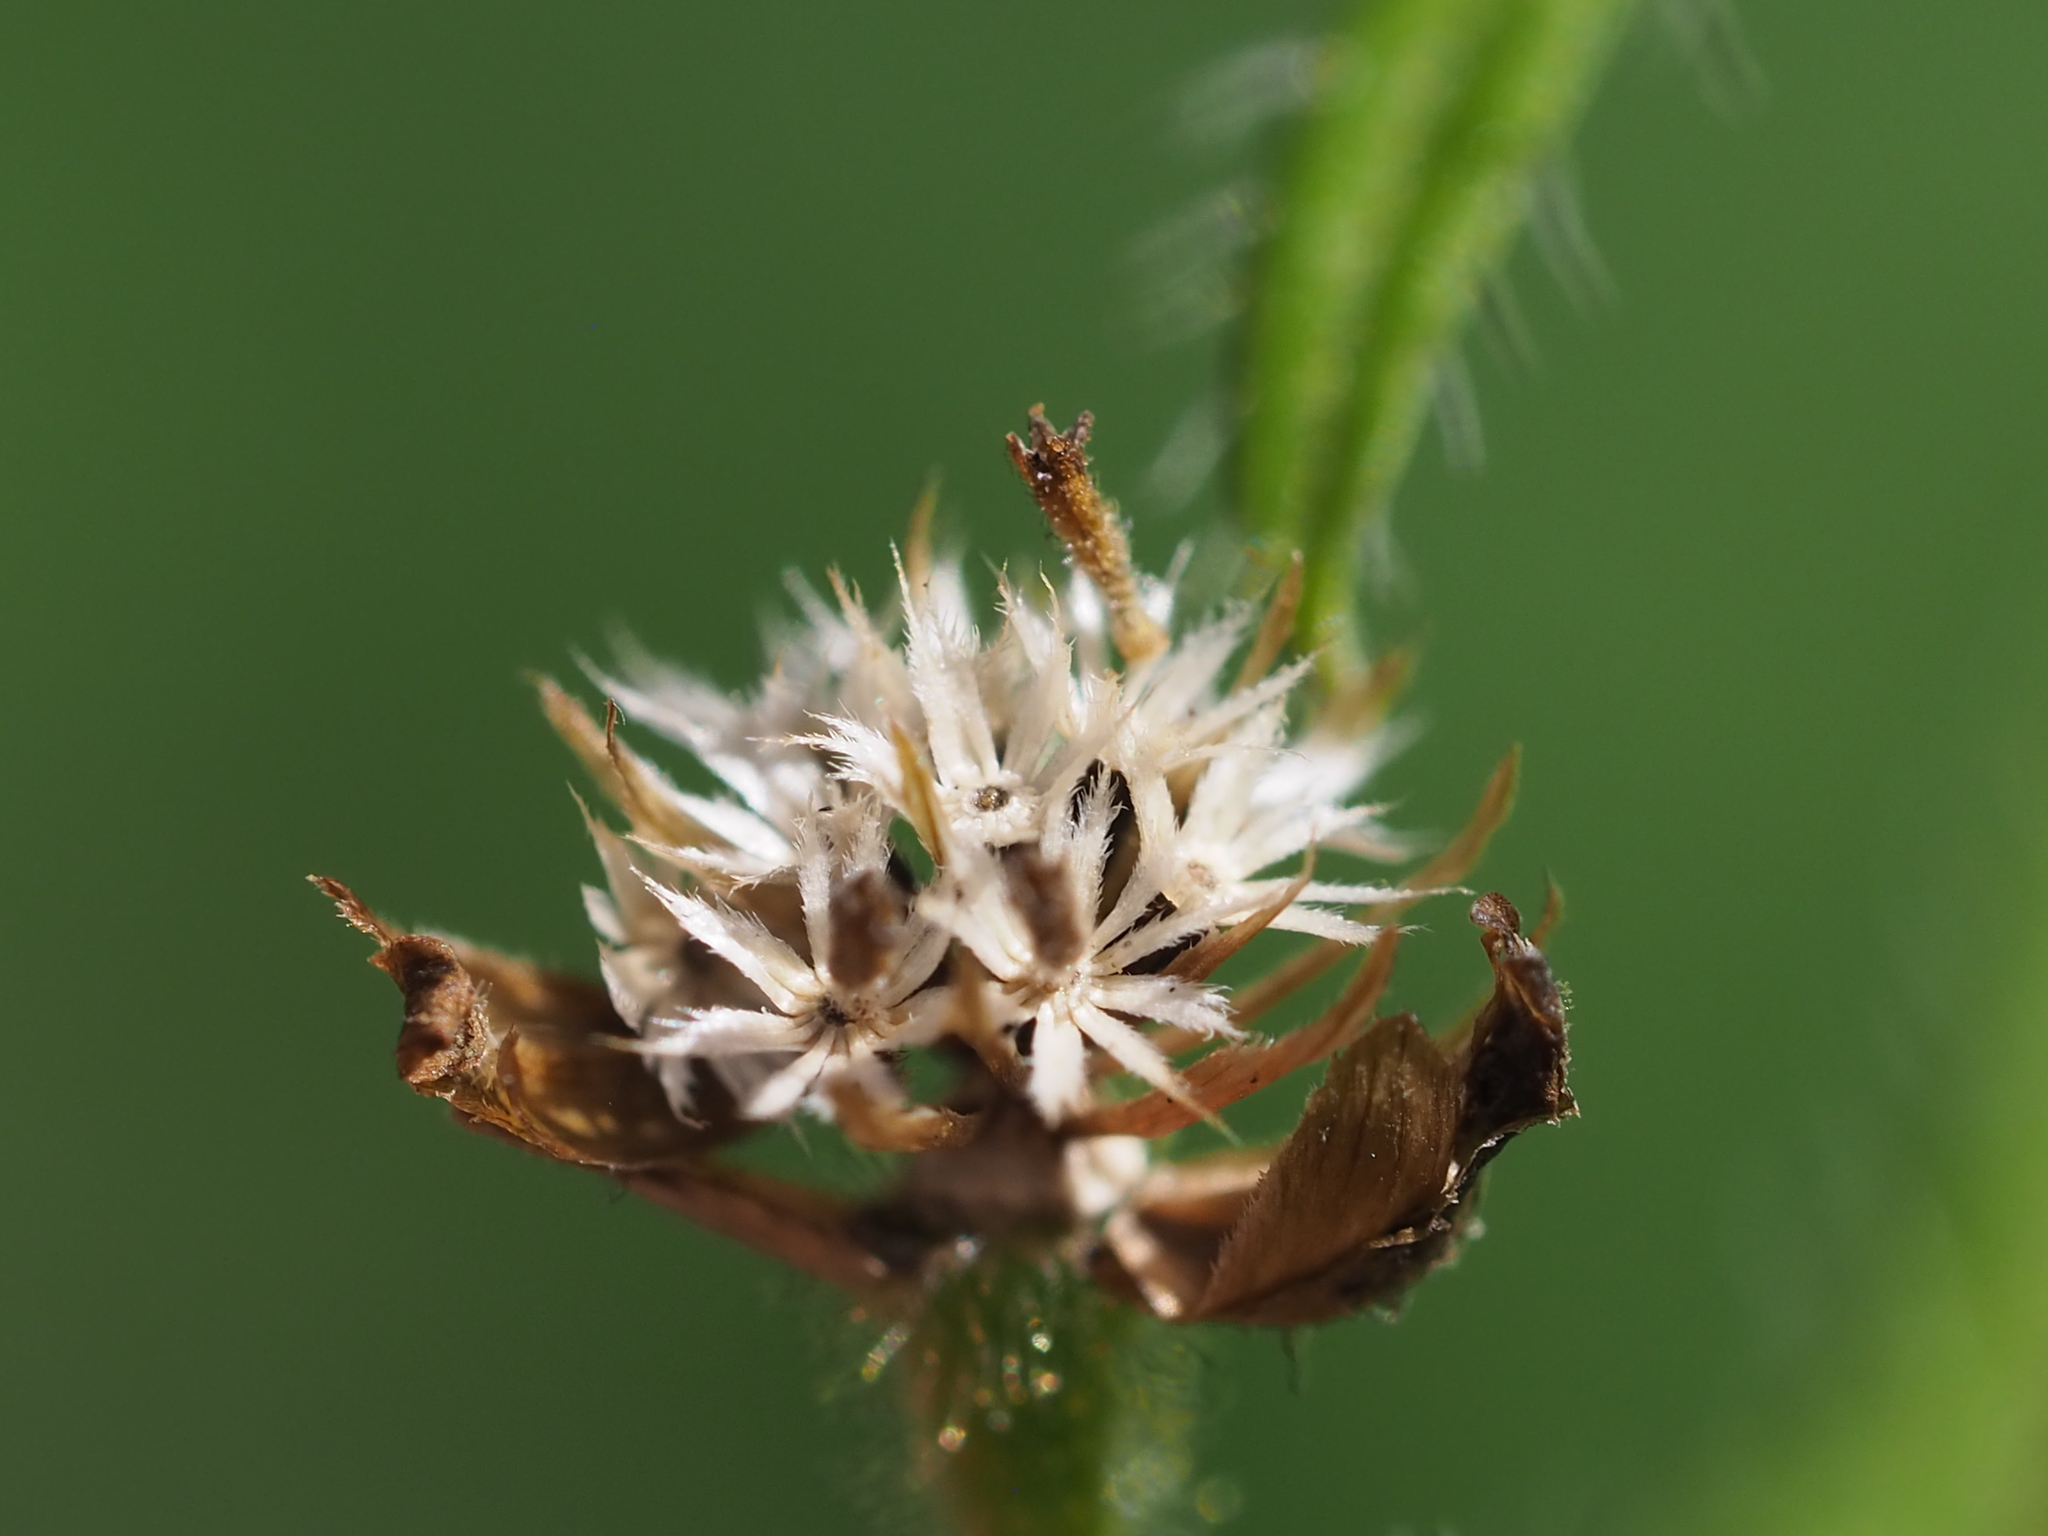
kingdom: Plantae
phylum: Tracheophyta
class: Magnoliopsida
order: Asterales
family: Asteraceae
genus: Galinsoga
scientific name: Galinsoga quadriradiata
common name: Shaggy soldier
